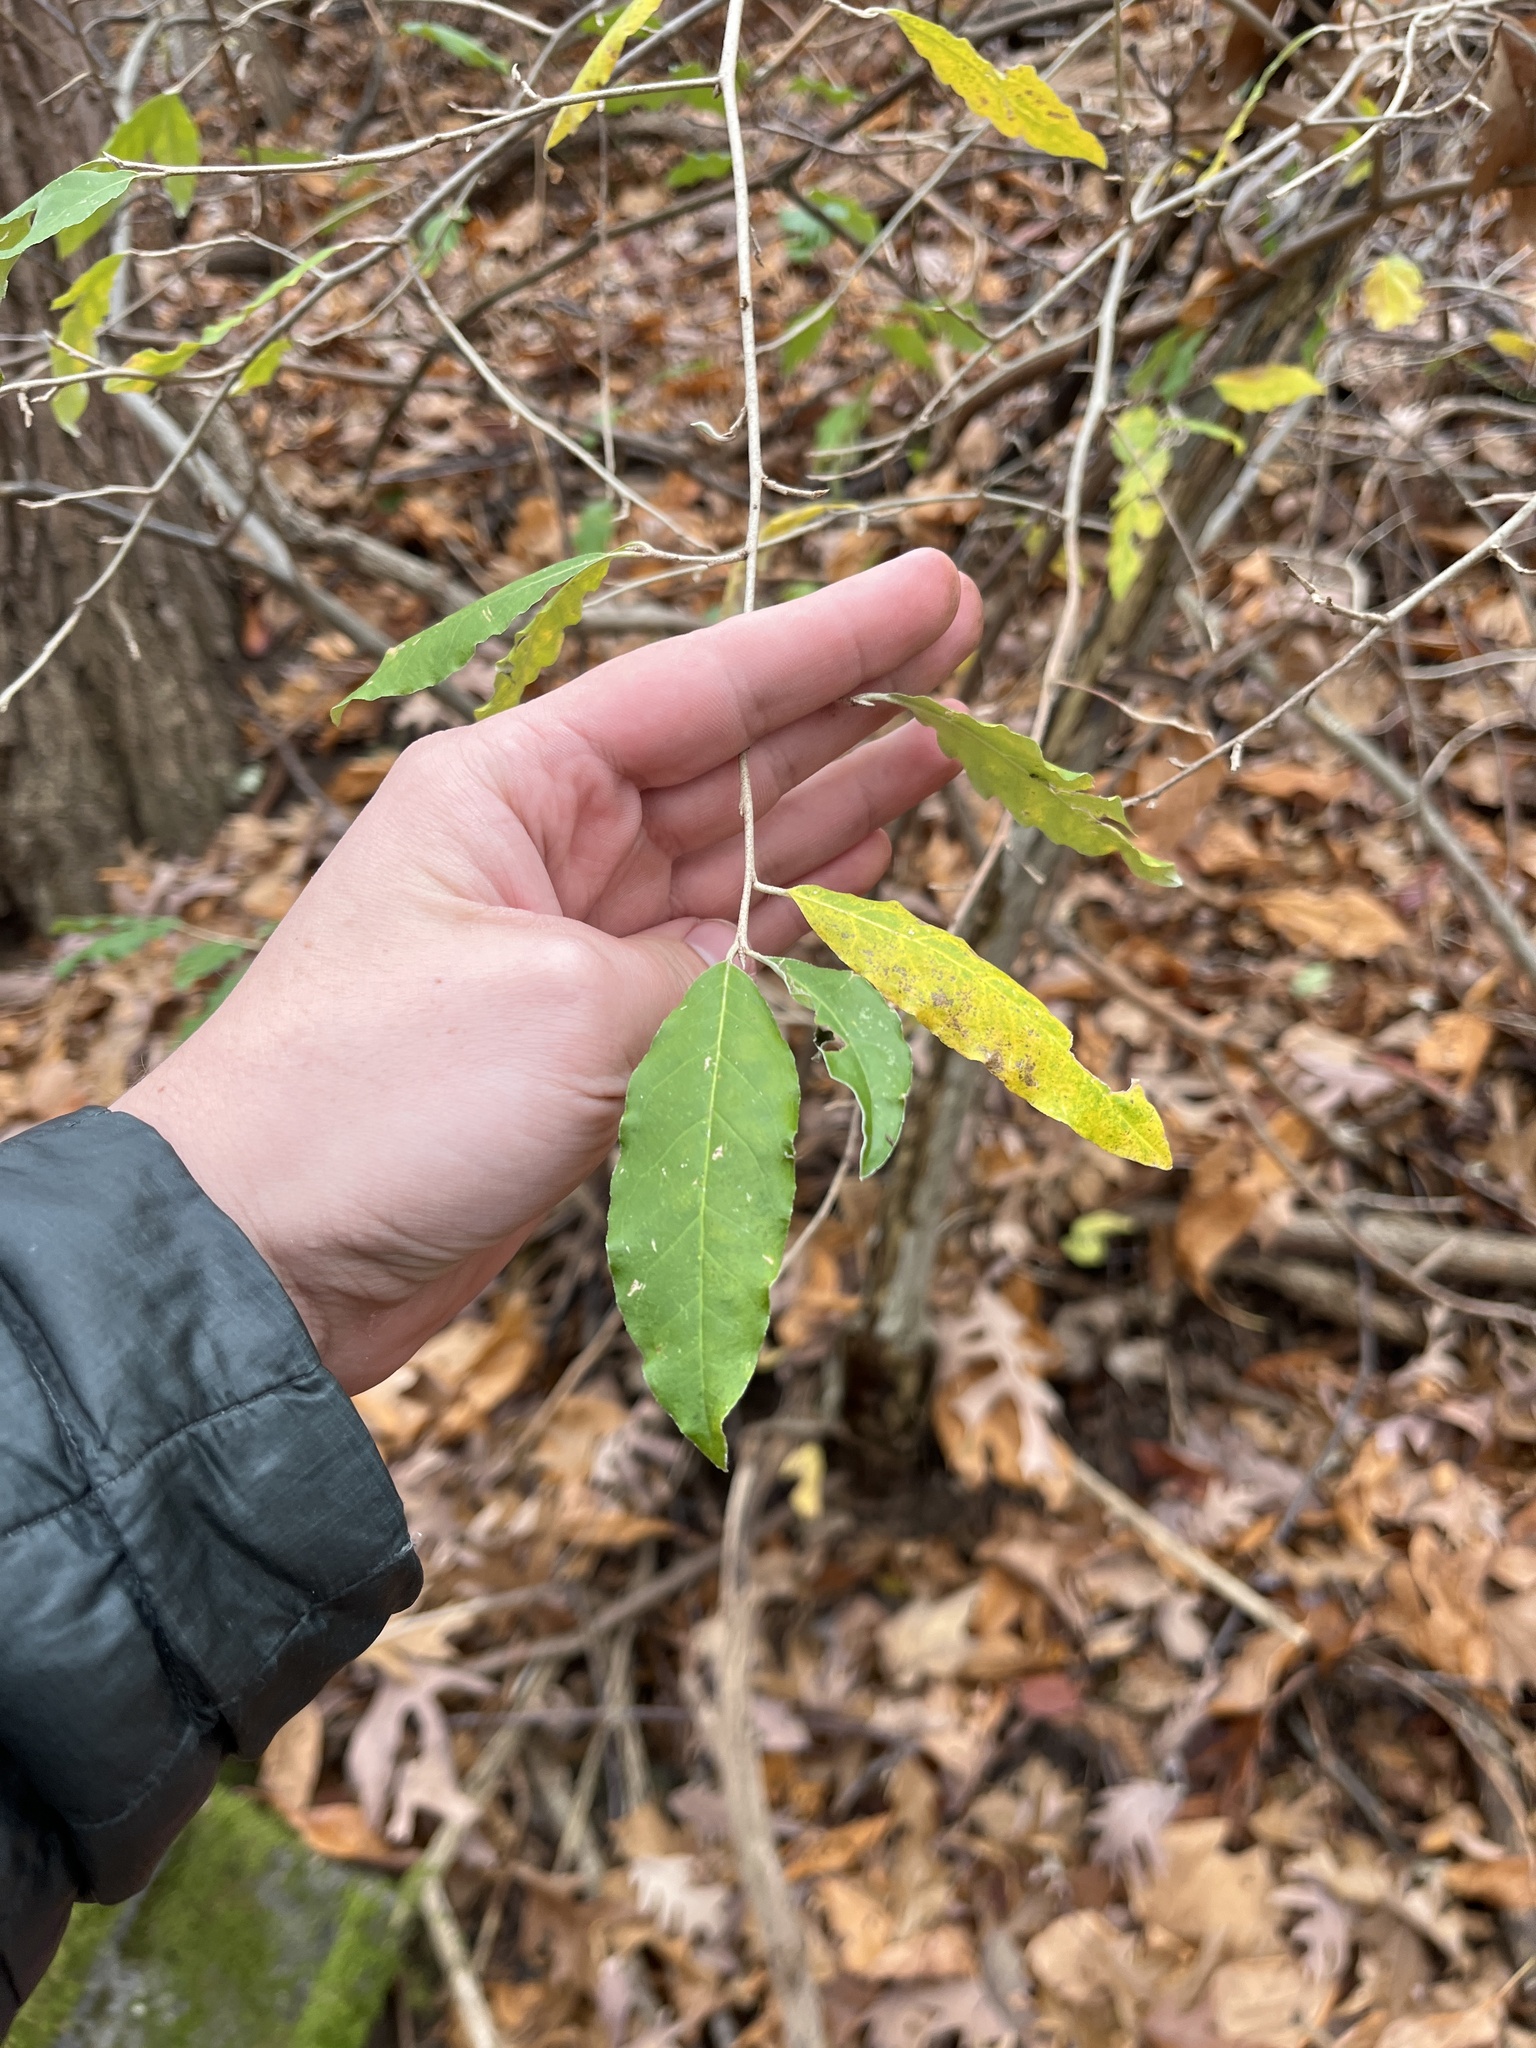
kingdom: Plantae
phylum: Tracheophyta
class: Magnoliopsida
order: Rosales
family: Elaeagnaceae
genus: Elaeagnus
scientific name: Elaeagnus umbellata
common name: Autumn olive
